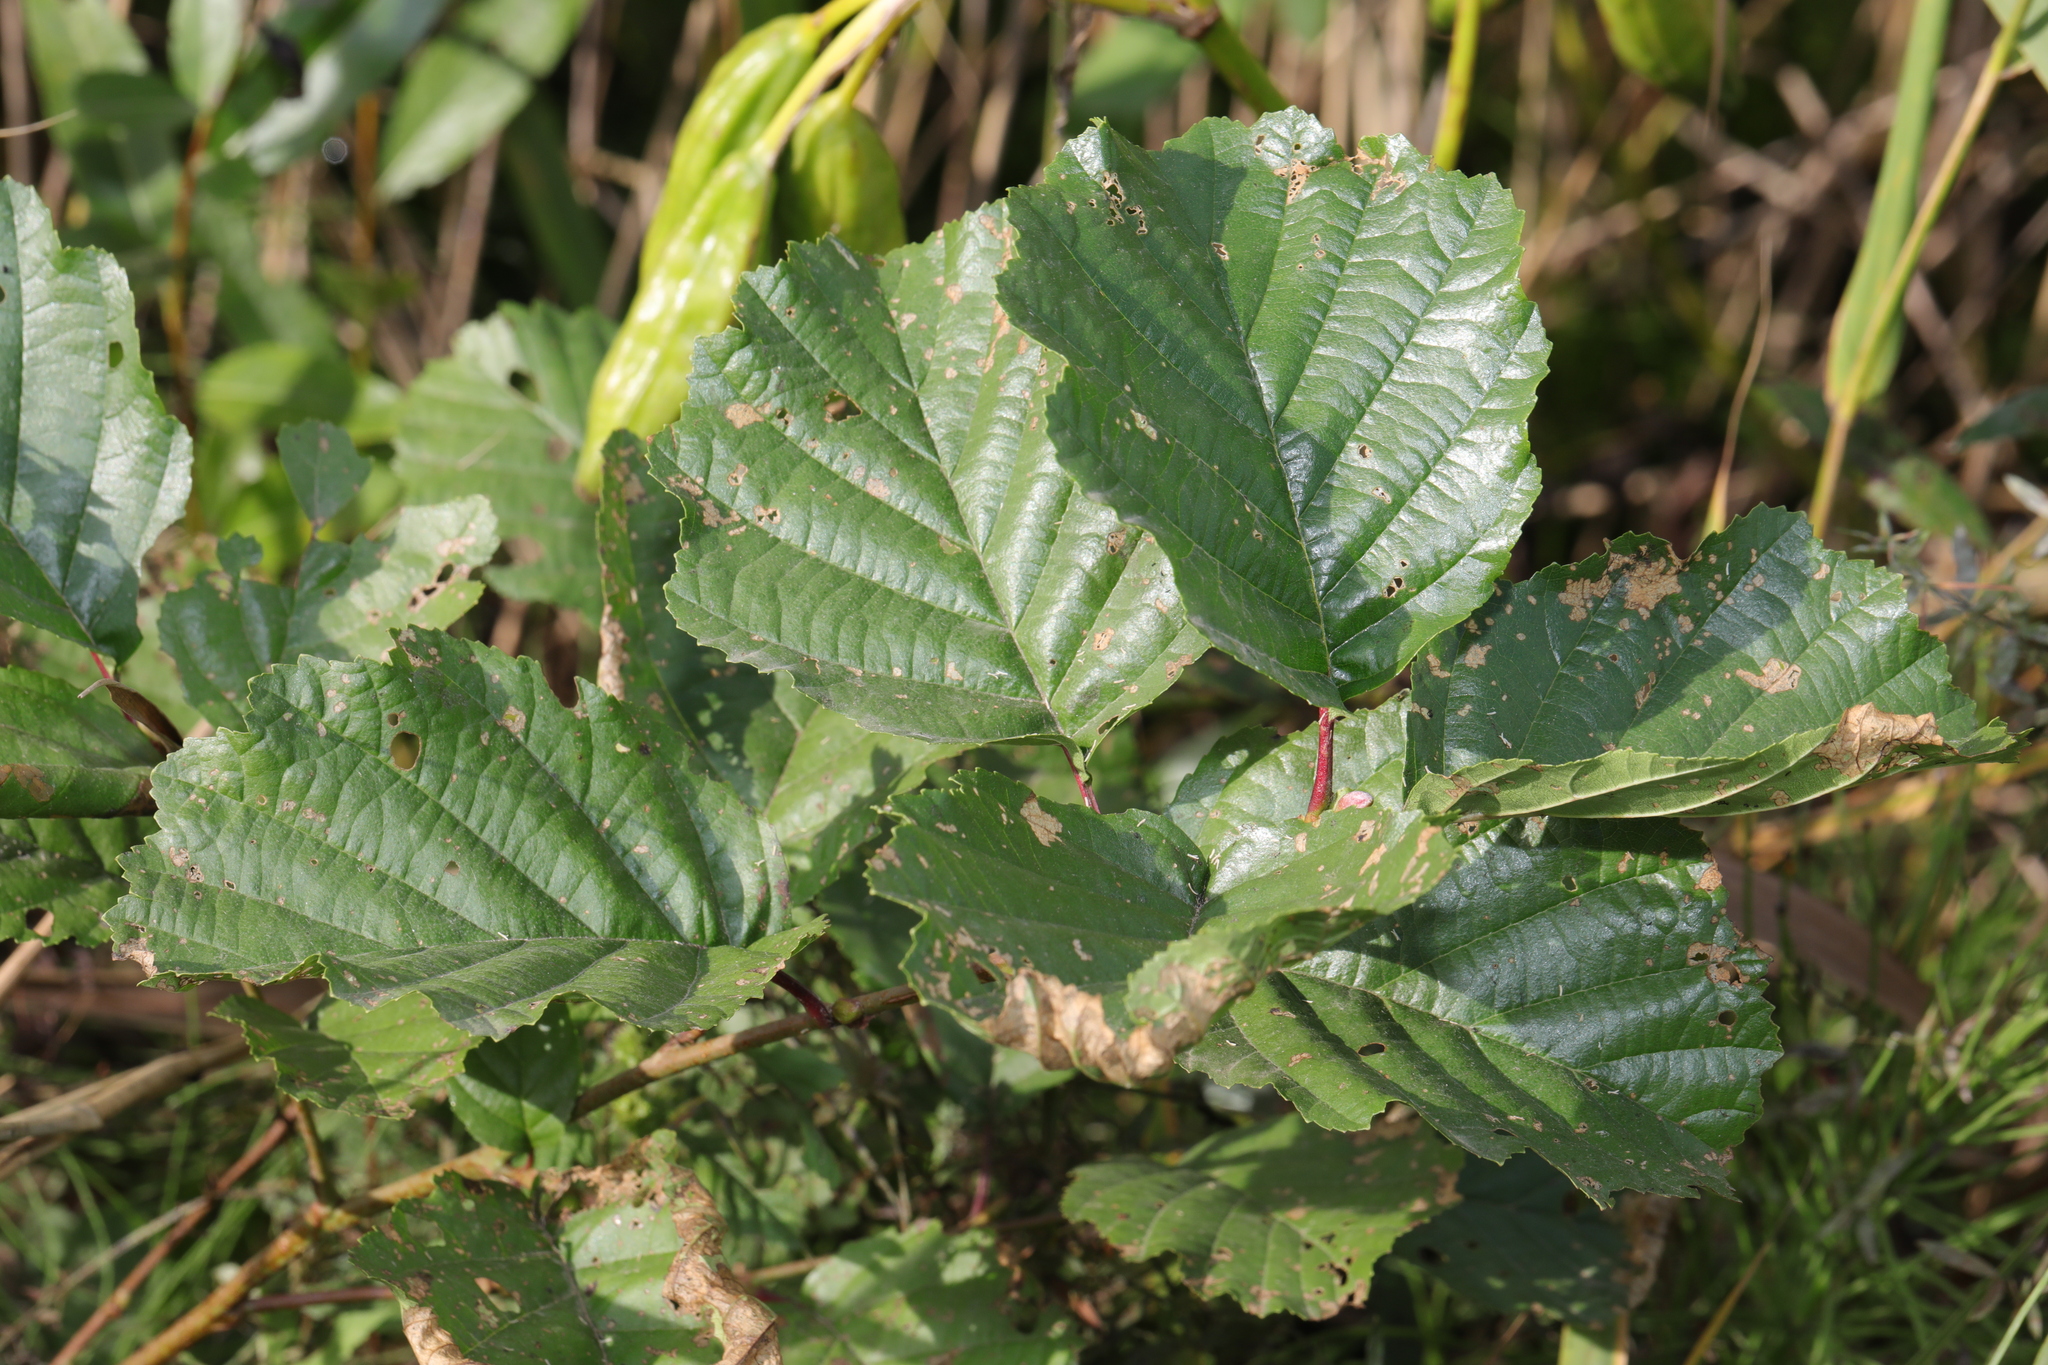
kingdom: Plantae
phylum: Tracheophyta
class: Magnoliopsida
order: Fagales
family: Betulaceae
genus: Alnus
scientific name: Alnus glutinosa
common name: Black alder
